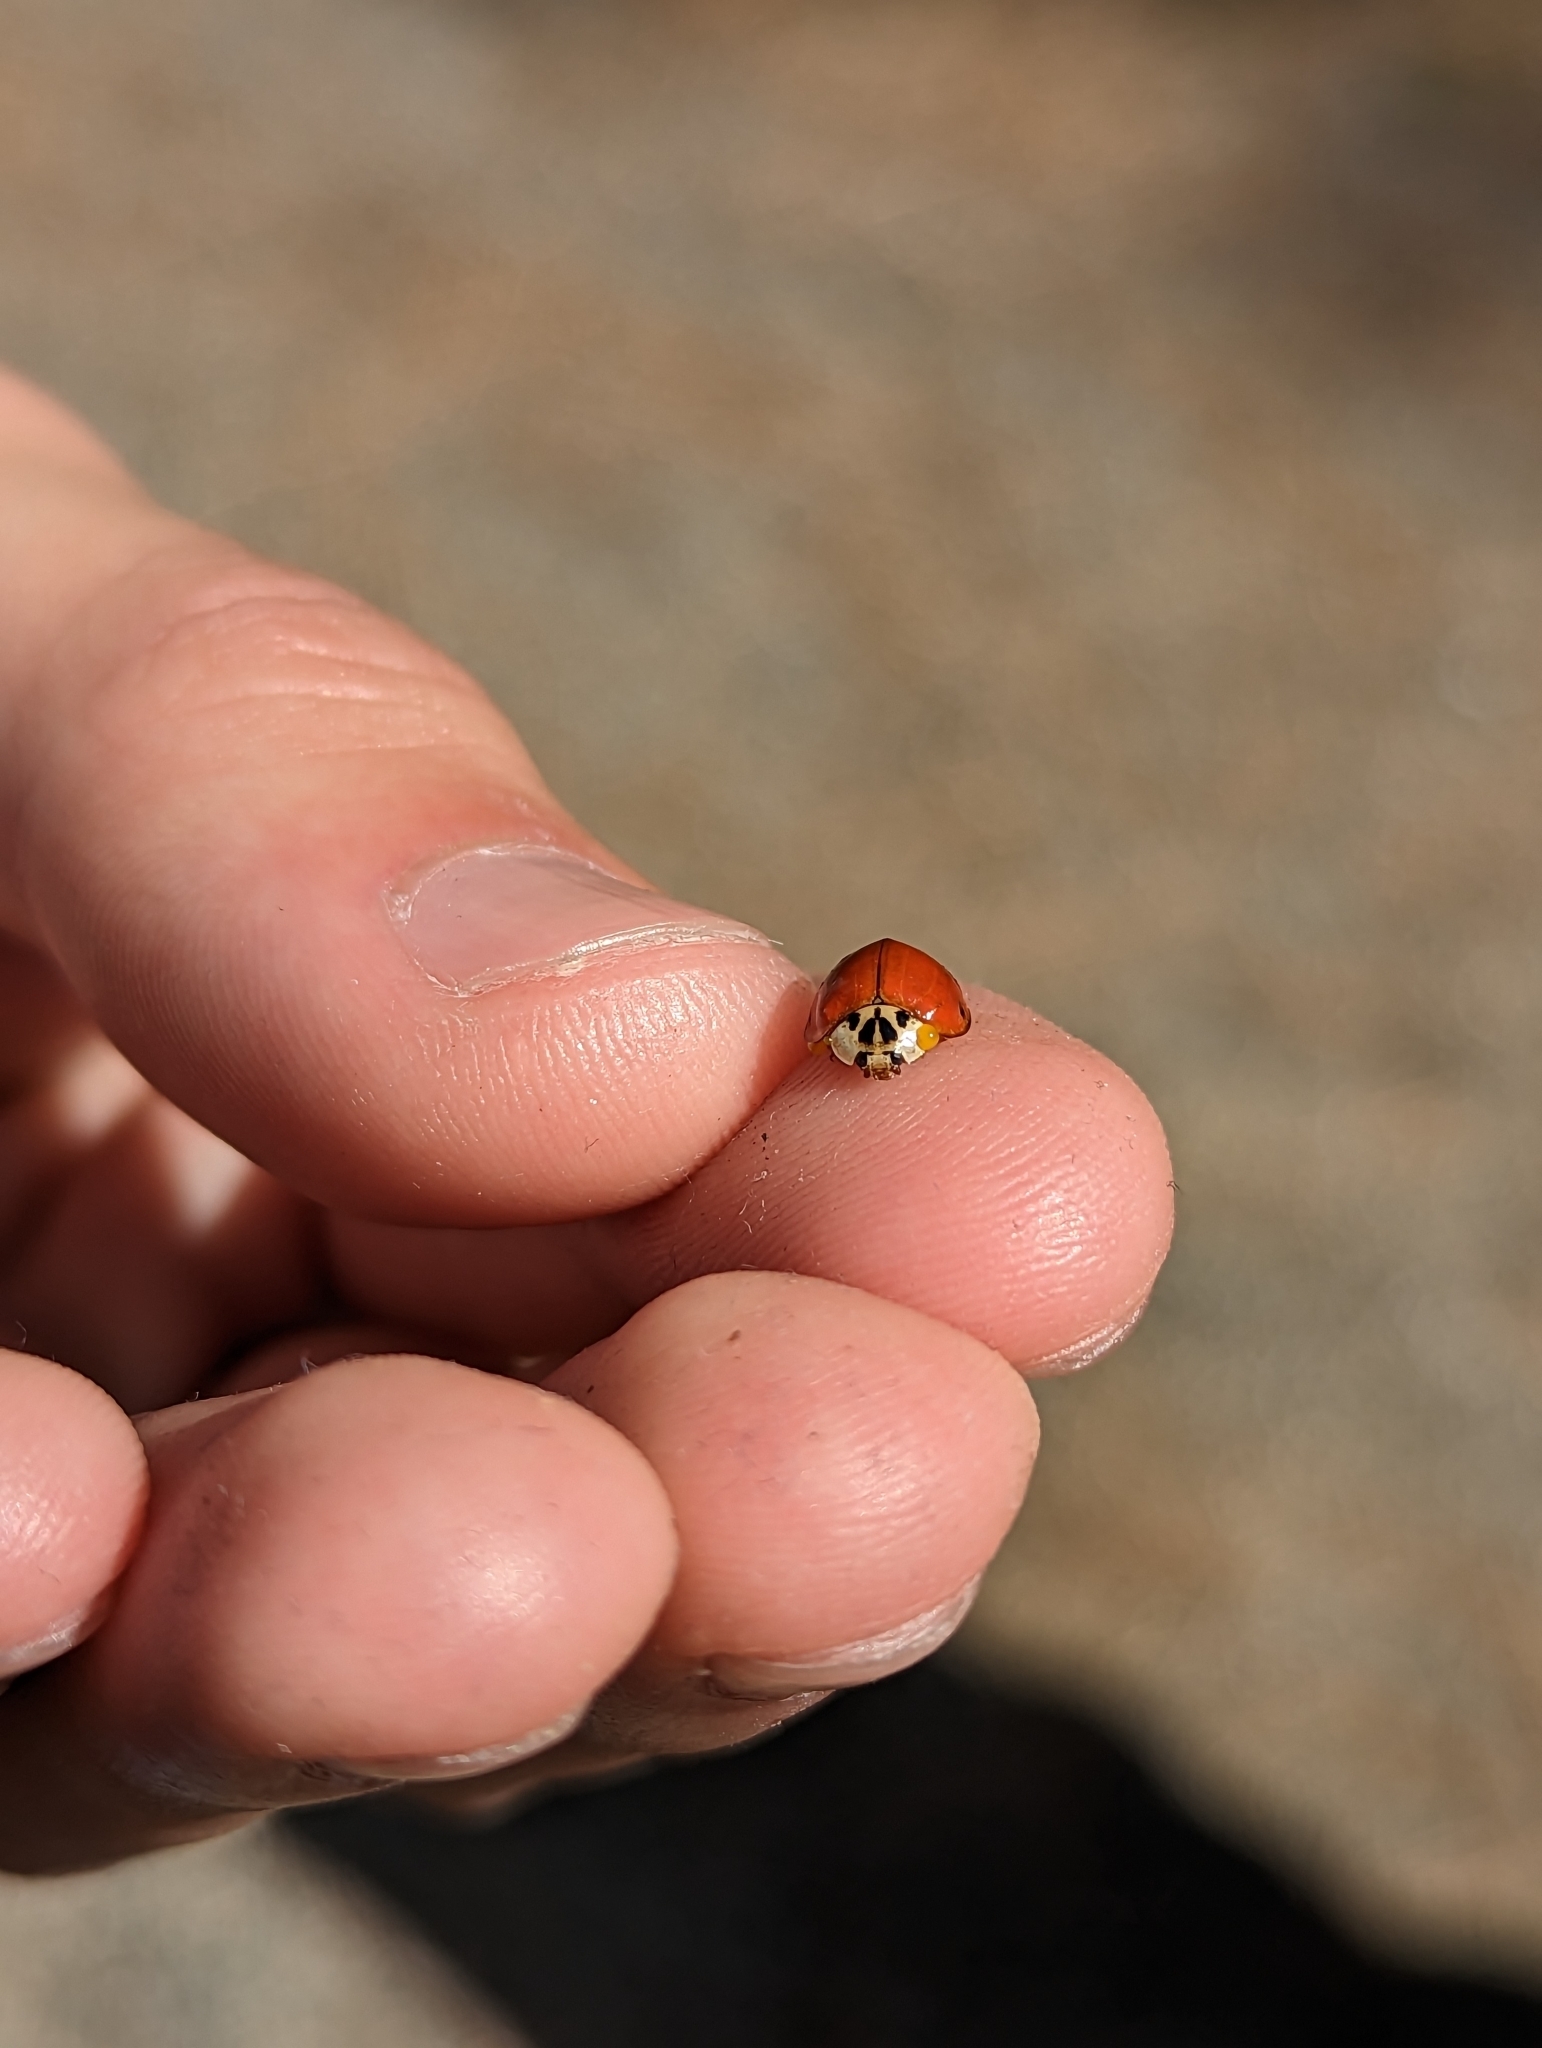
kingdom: Animalia
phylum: Arthropoda
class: Insecta
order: Coleoptera
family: Coccinellidae
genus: Harmonia
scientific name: Harmonia axyridis
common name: Harlequin ladybird
